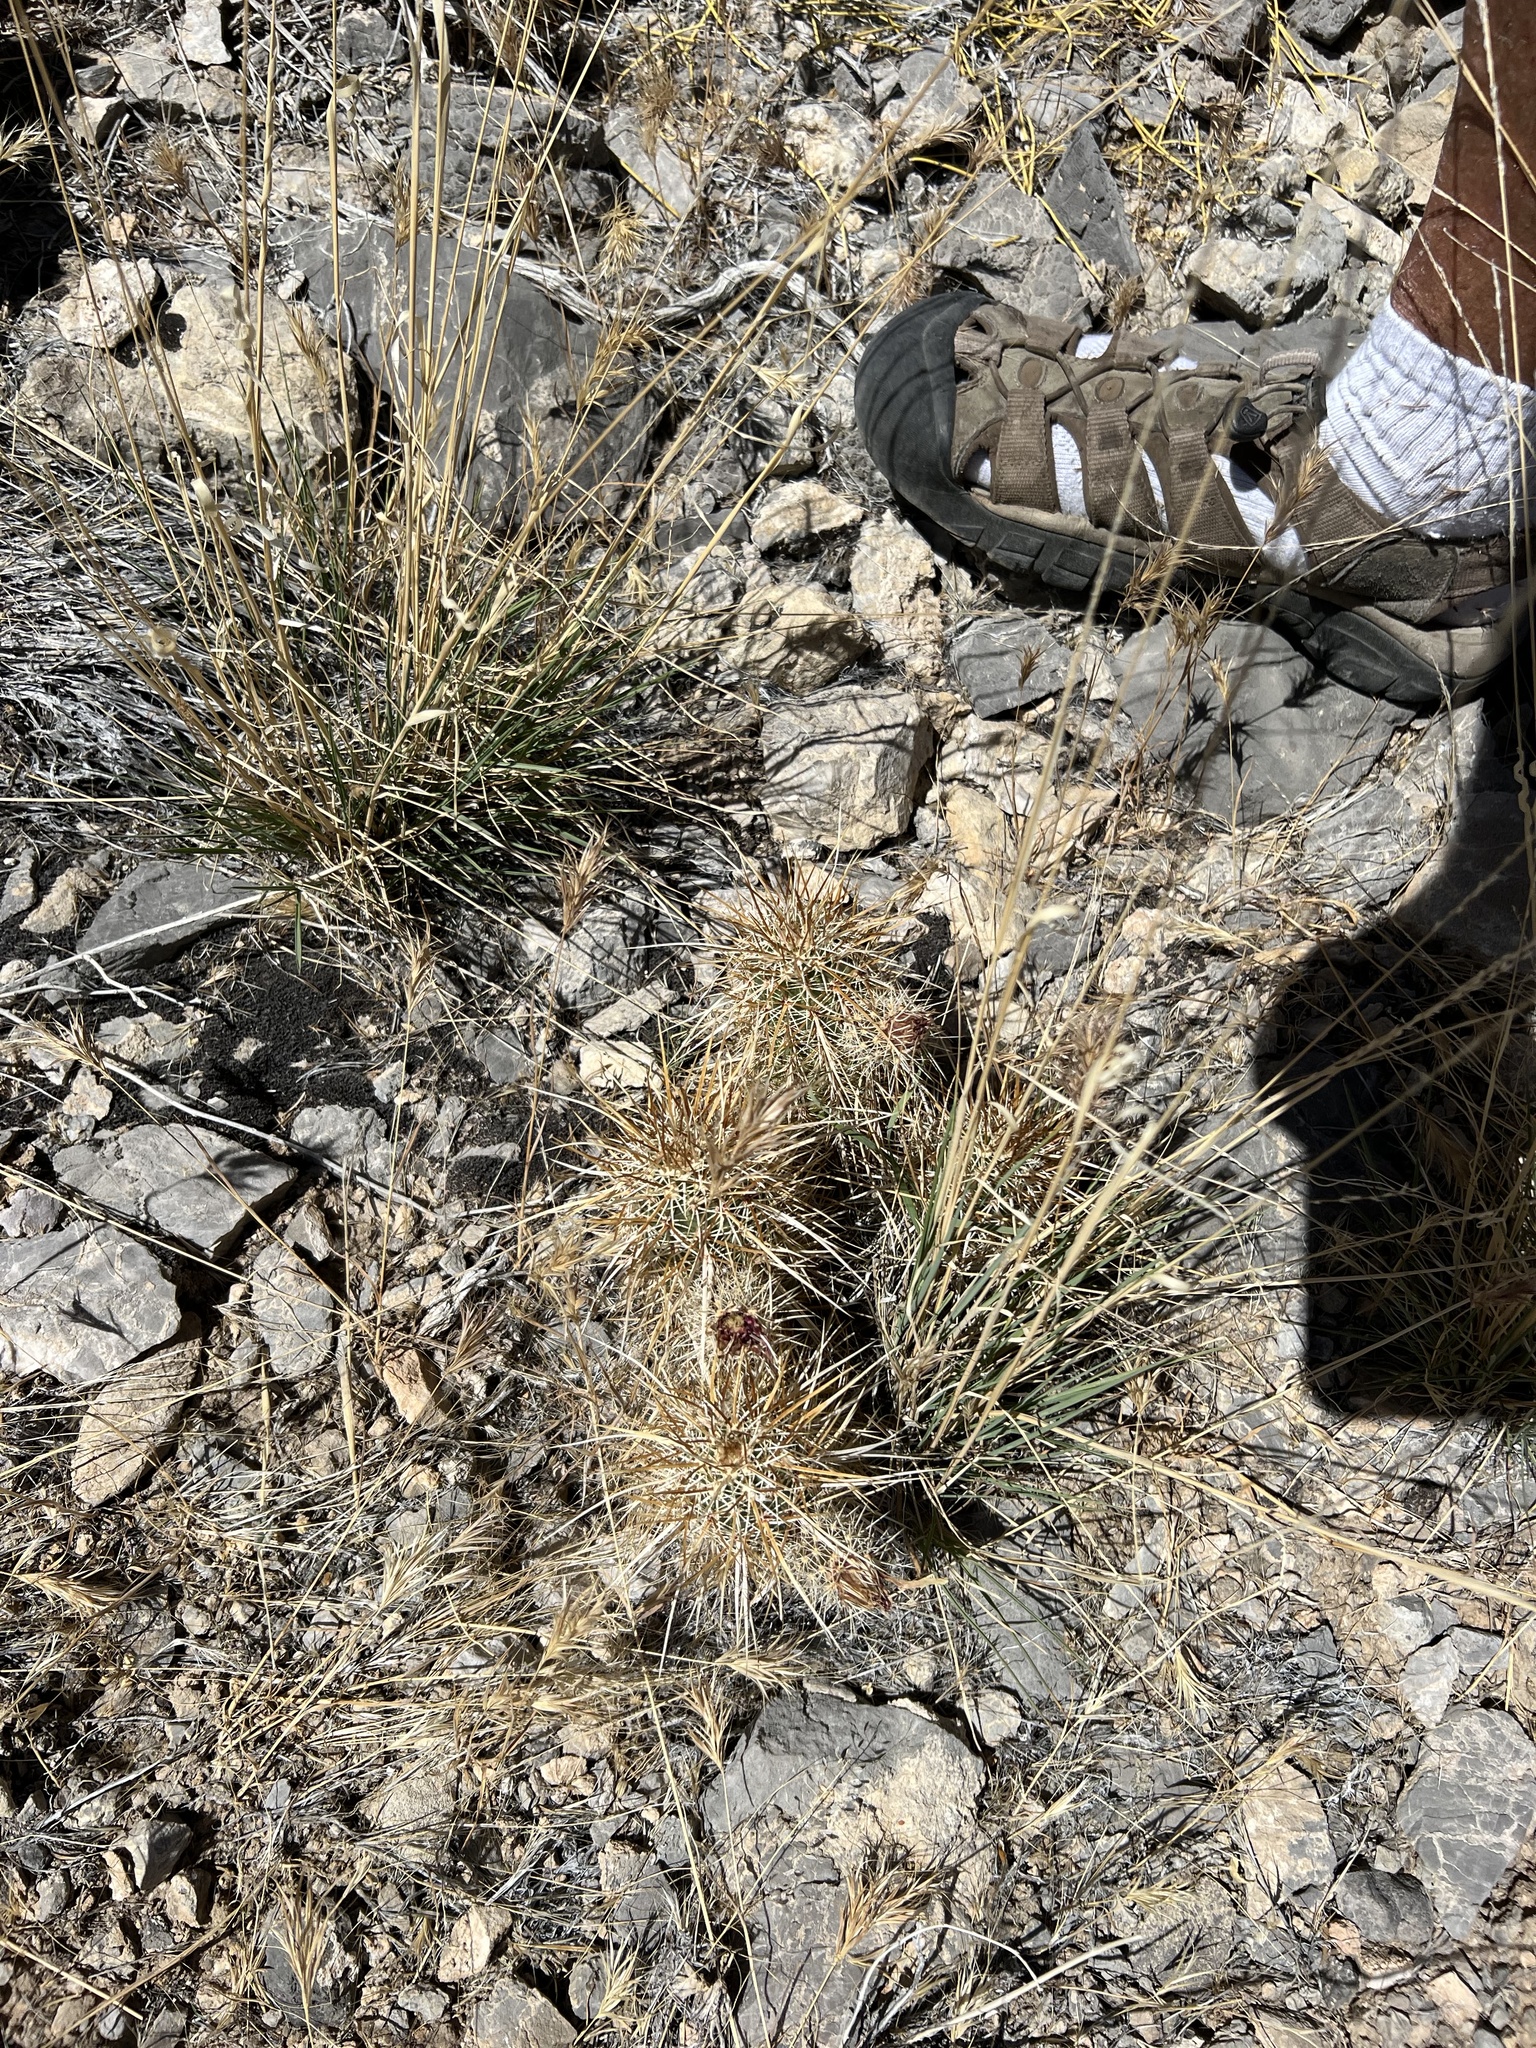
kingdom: Plantae
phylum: Tracheophyta
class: Magnoliopsida
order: Caryophyllales
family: Cactaceae
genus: Echinocereus
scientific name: Echinocereus engelmannii
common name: Engelmann's hedgehog cactus
